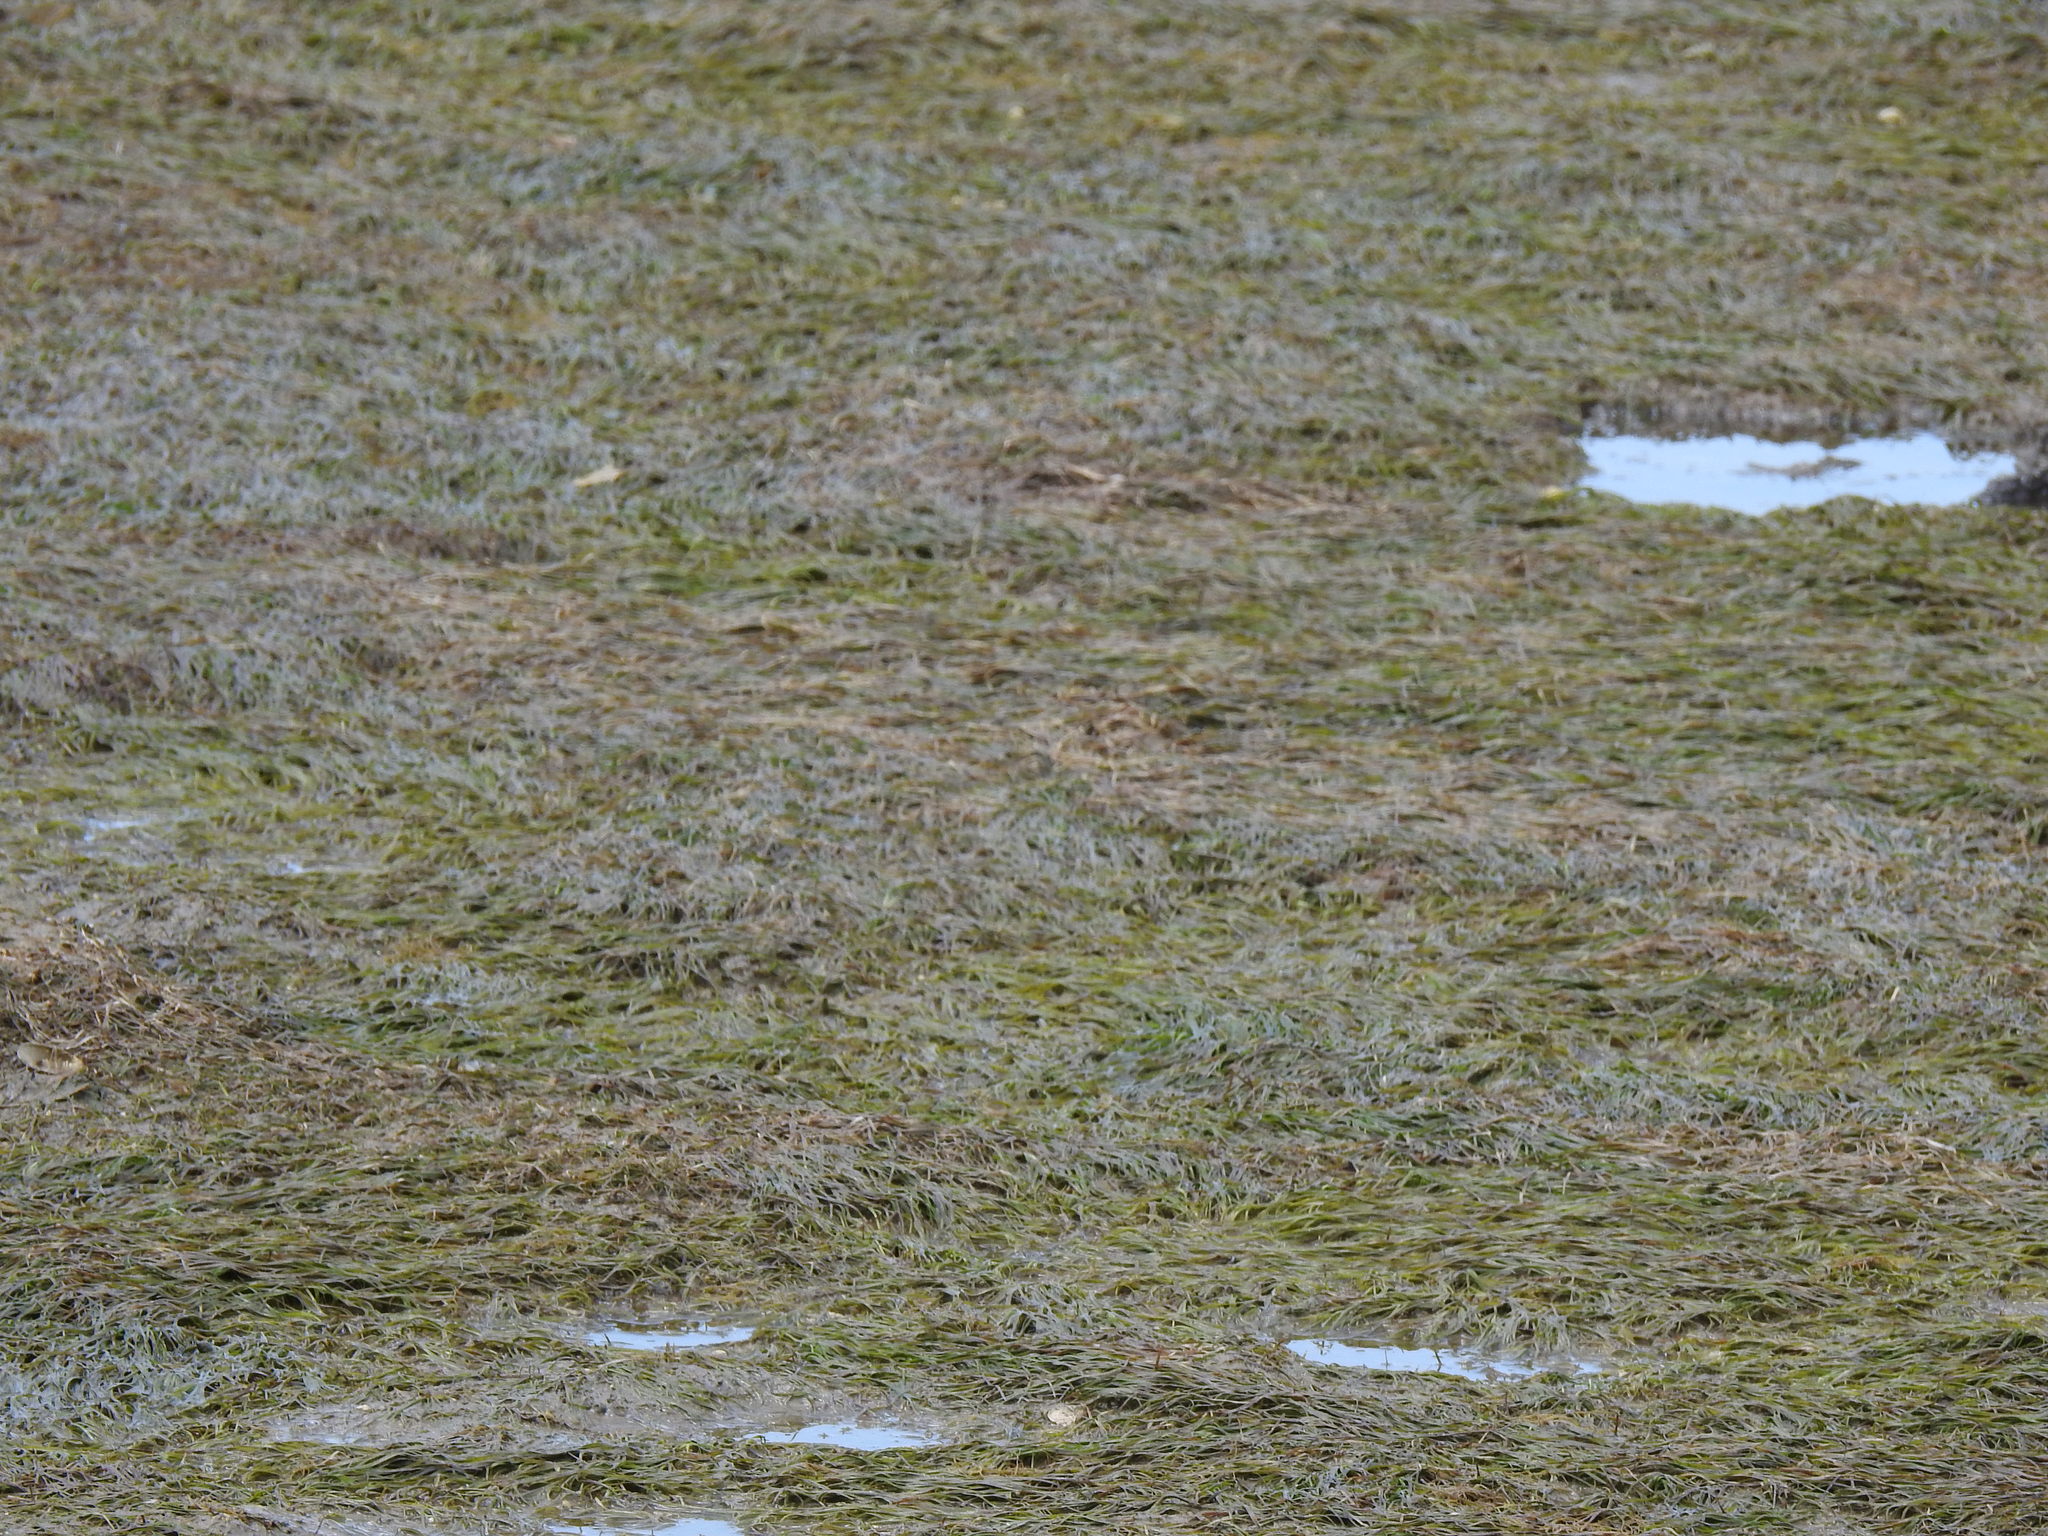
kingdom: Plantae
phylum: Tracheophyta
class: Liliopsida
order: Alismatales
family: Zosteraceae
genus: Zostera
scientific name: Zostera noltii
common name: Dwarf eelgrass
